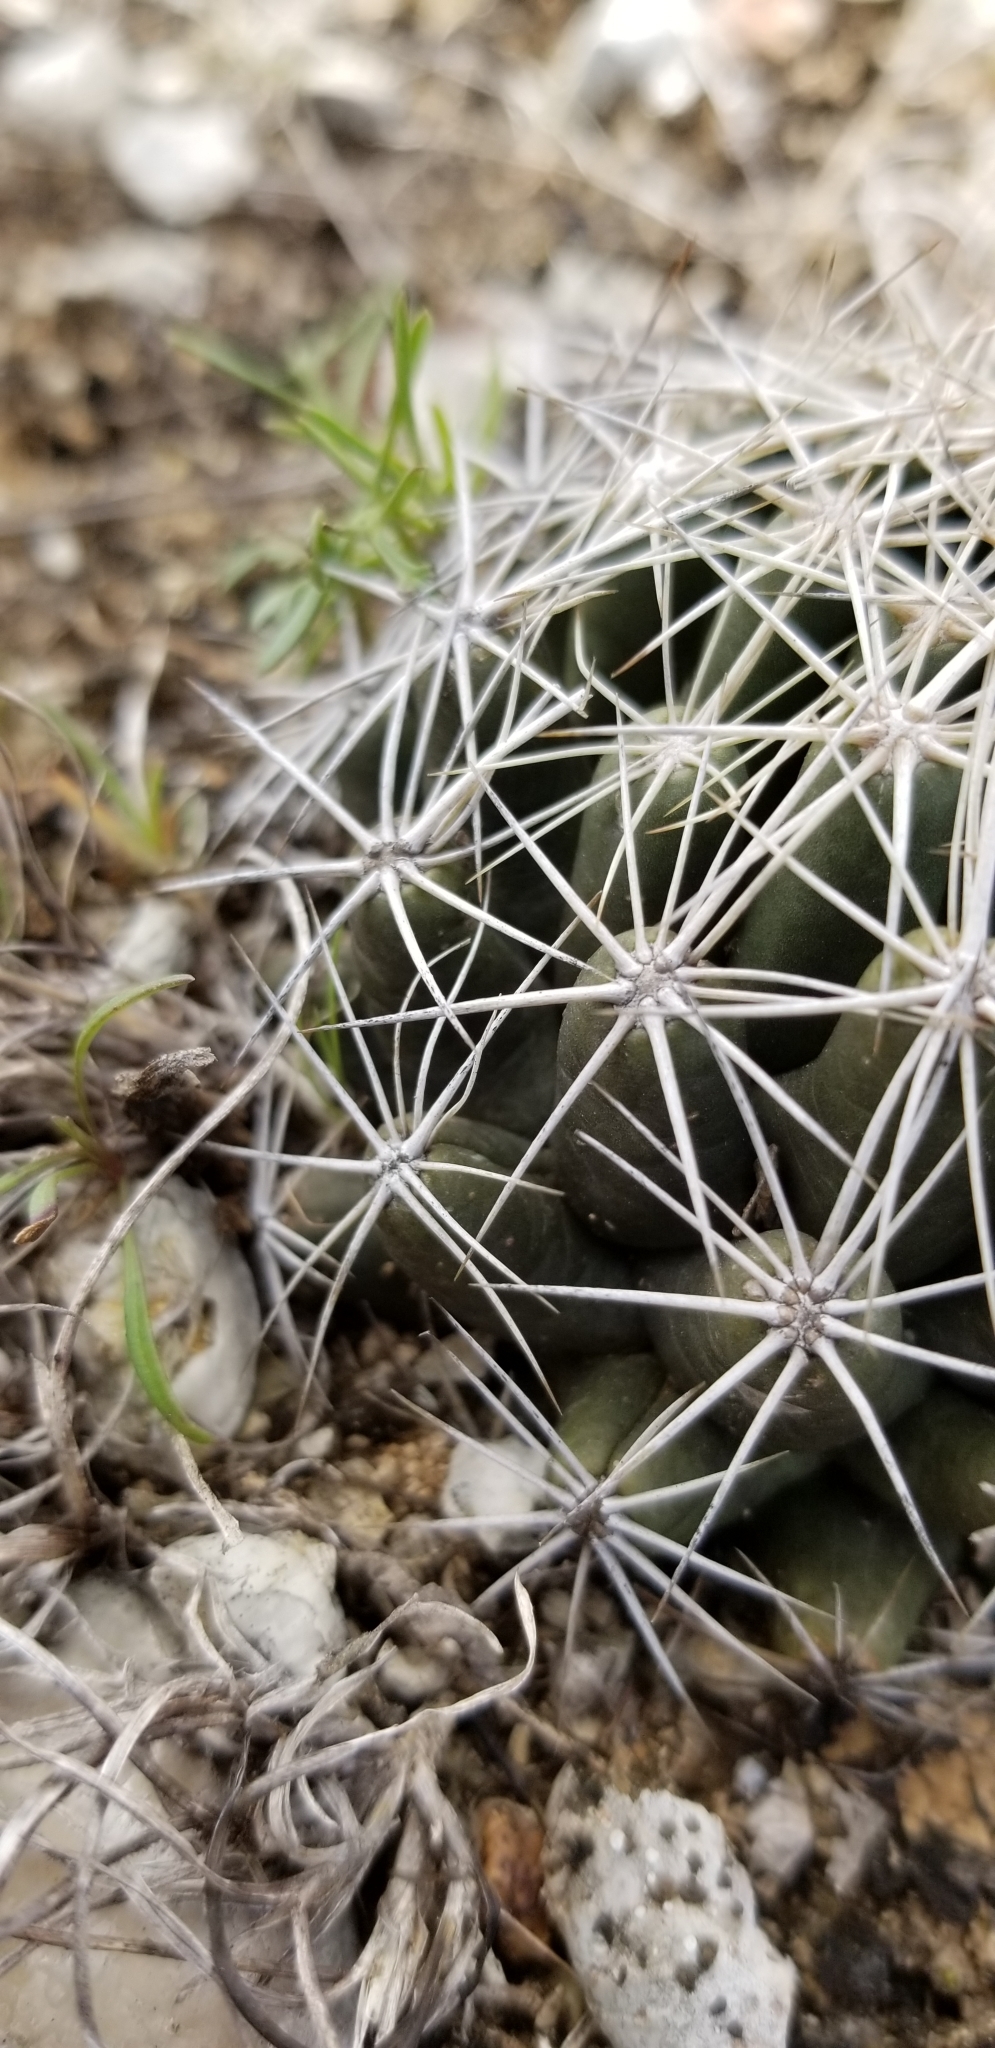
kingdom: Plantae
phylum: Tracheophyta
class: Magnoliopsida
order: Caryophyllales
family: Cactaceae
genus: Coryphantha
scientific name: Coryphantha sulcata
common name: Finger cactus
